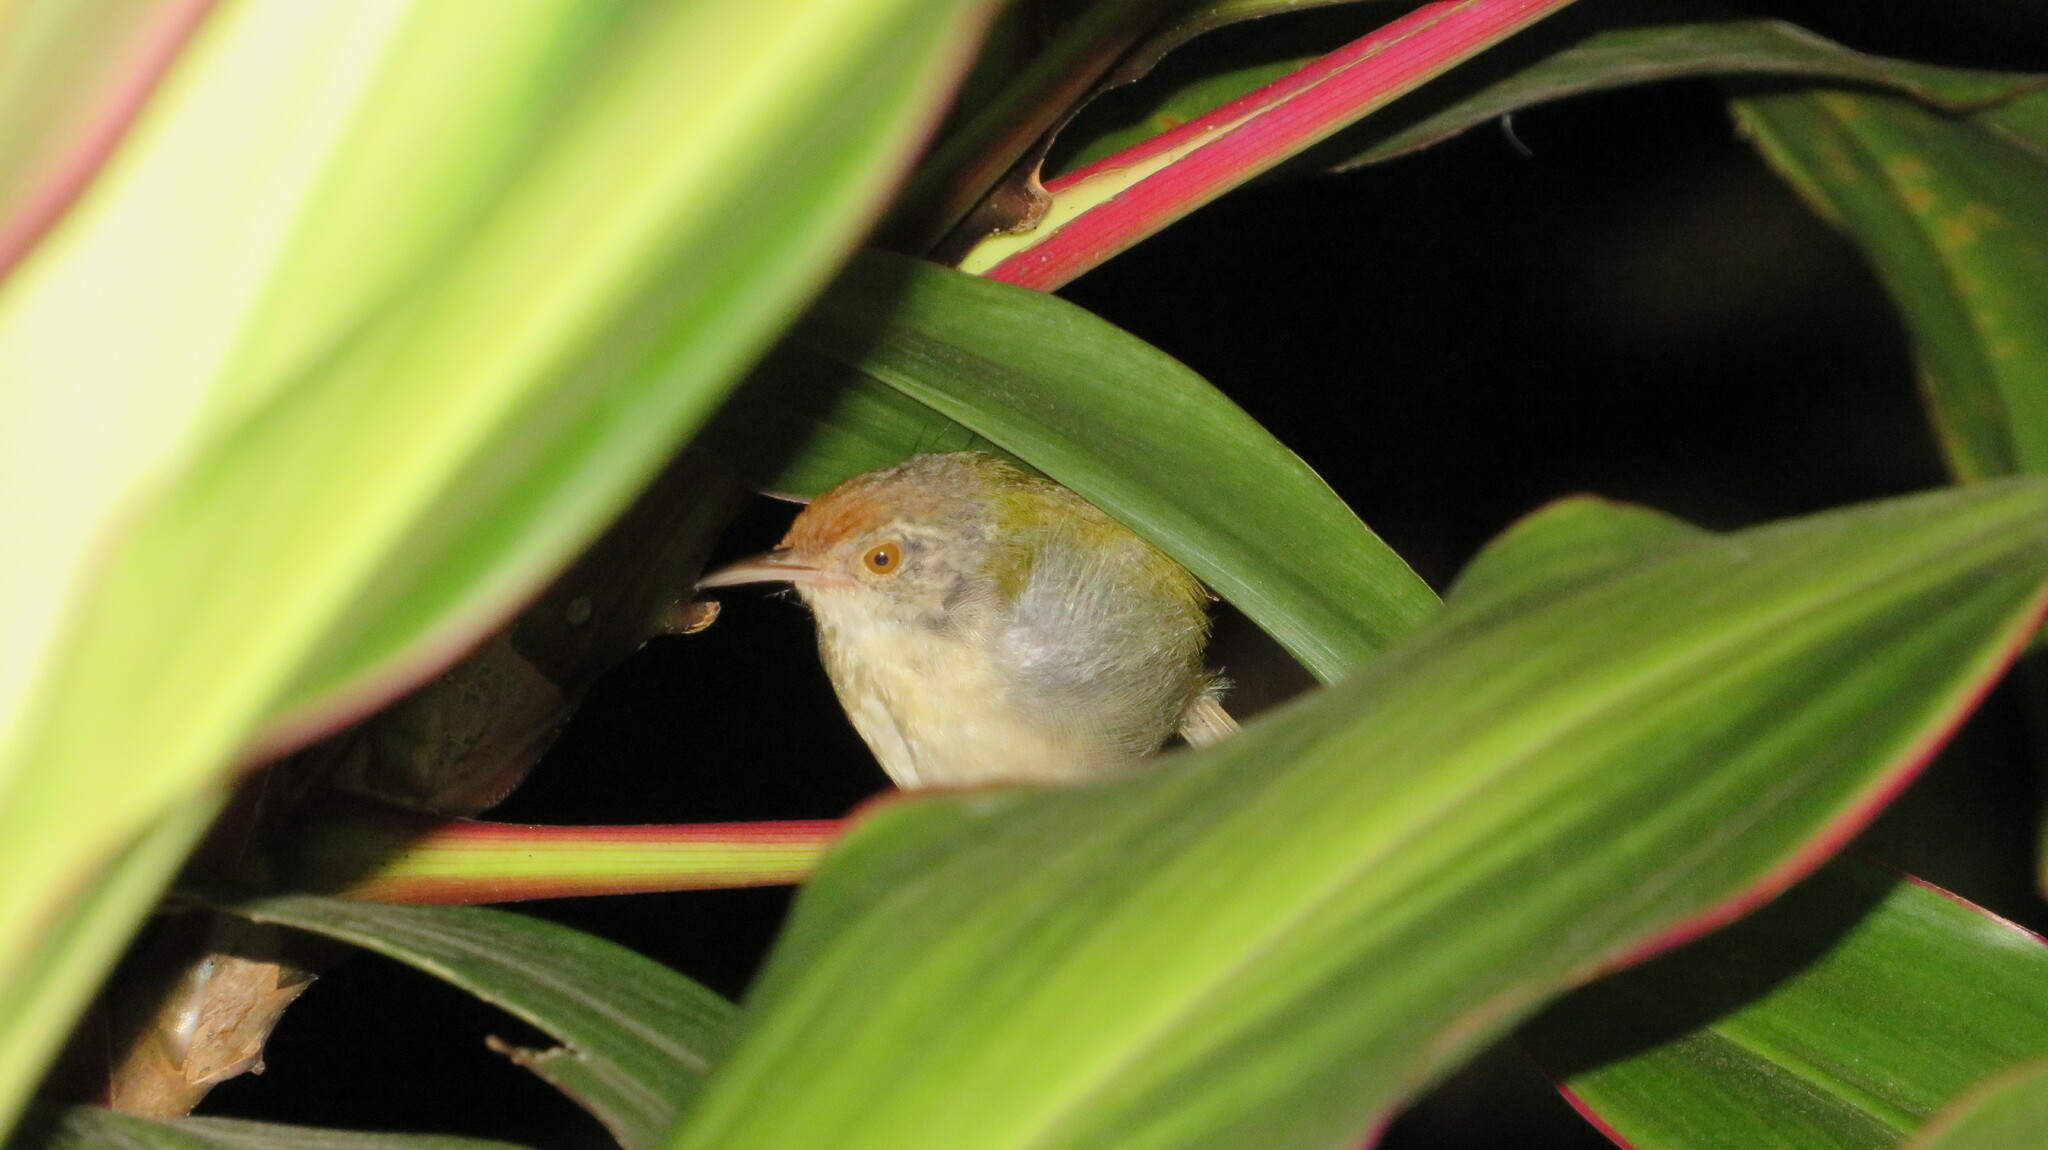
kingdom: Animalia
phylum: Chordata
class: Aves
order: Passeriformes
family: Cisticolidae
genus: Orthotomus
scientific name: Orthotomus sutorius
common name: Common tailorbird
